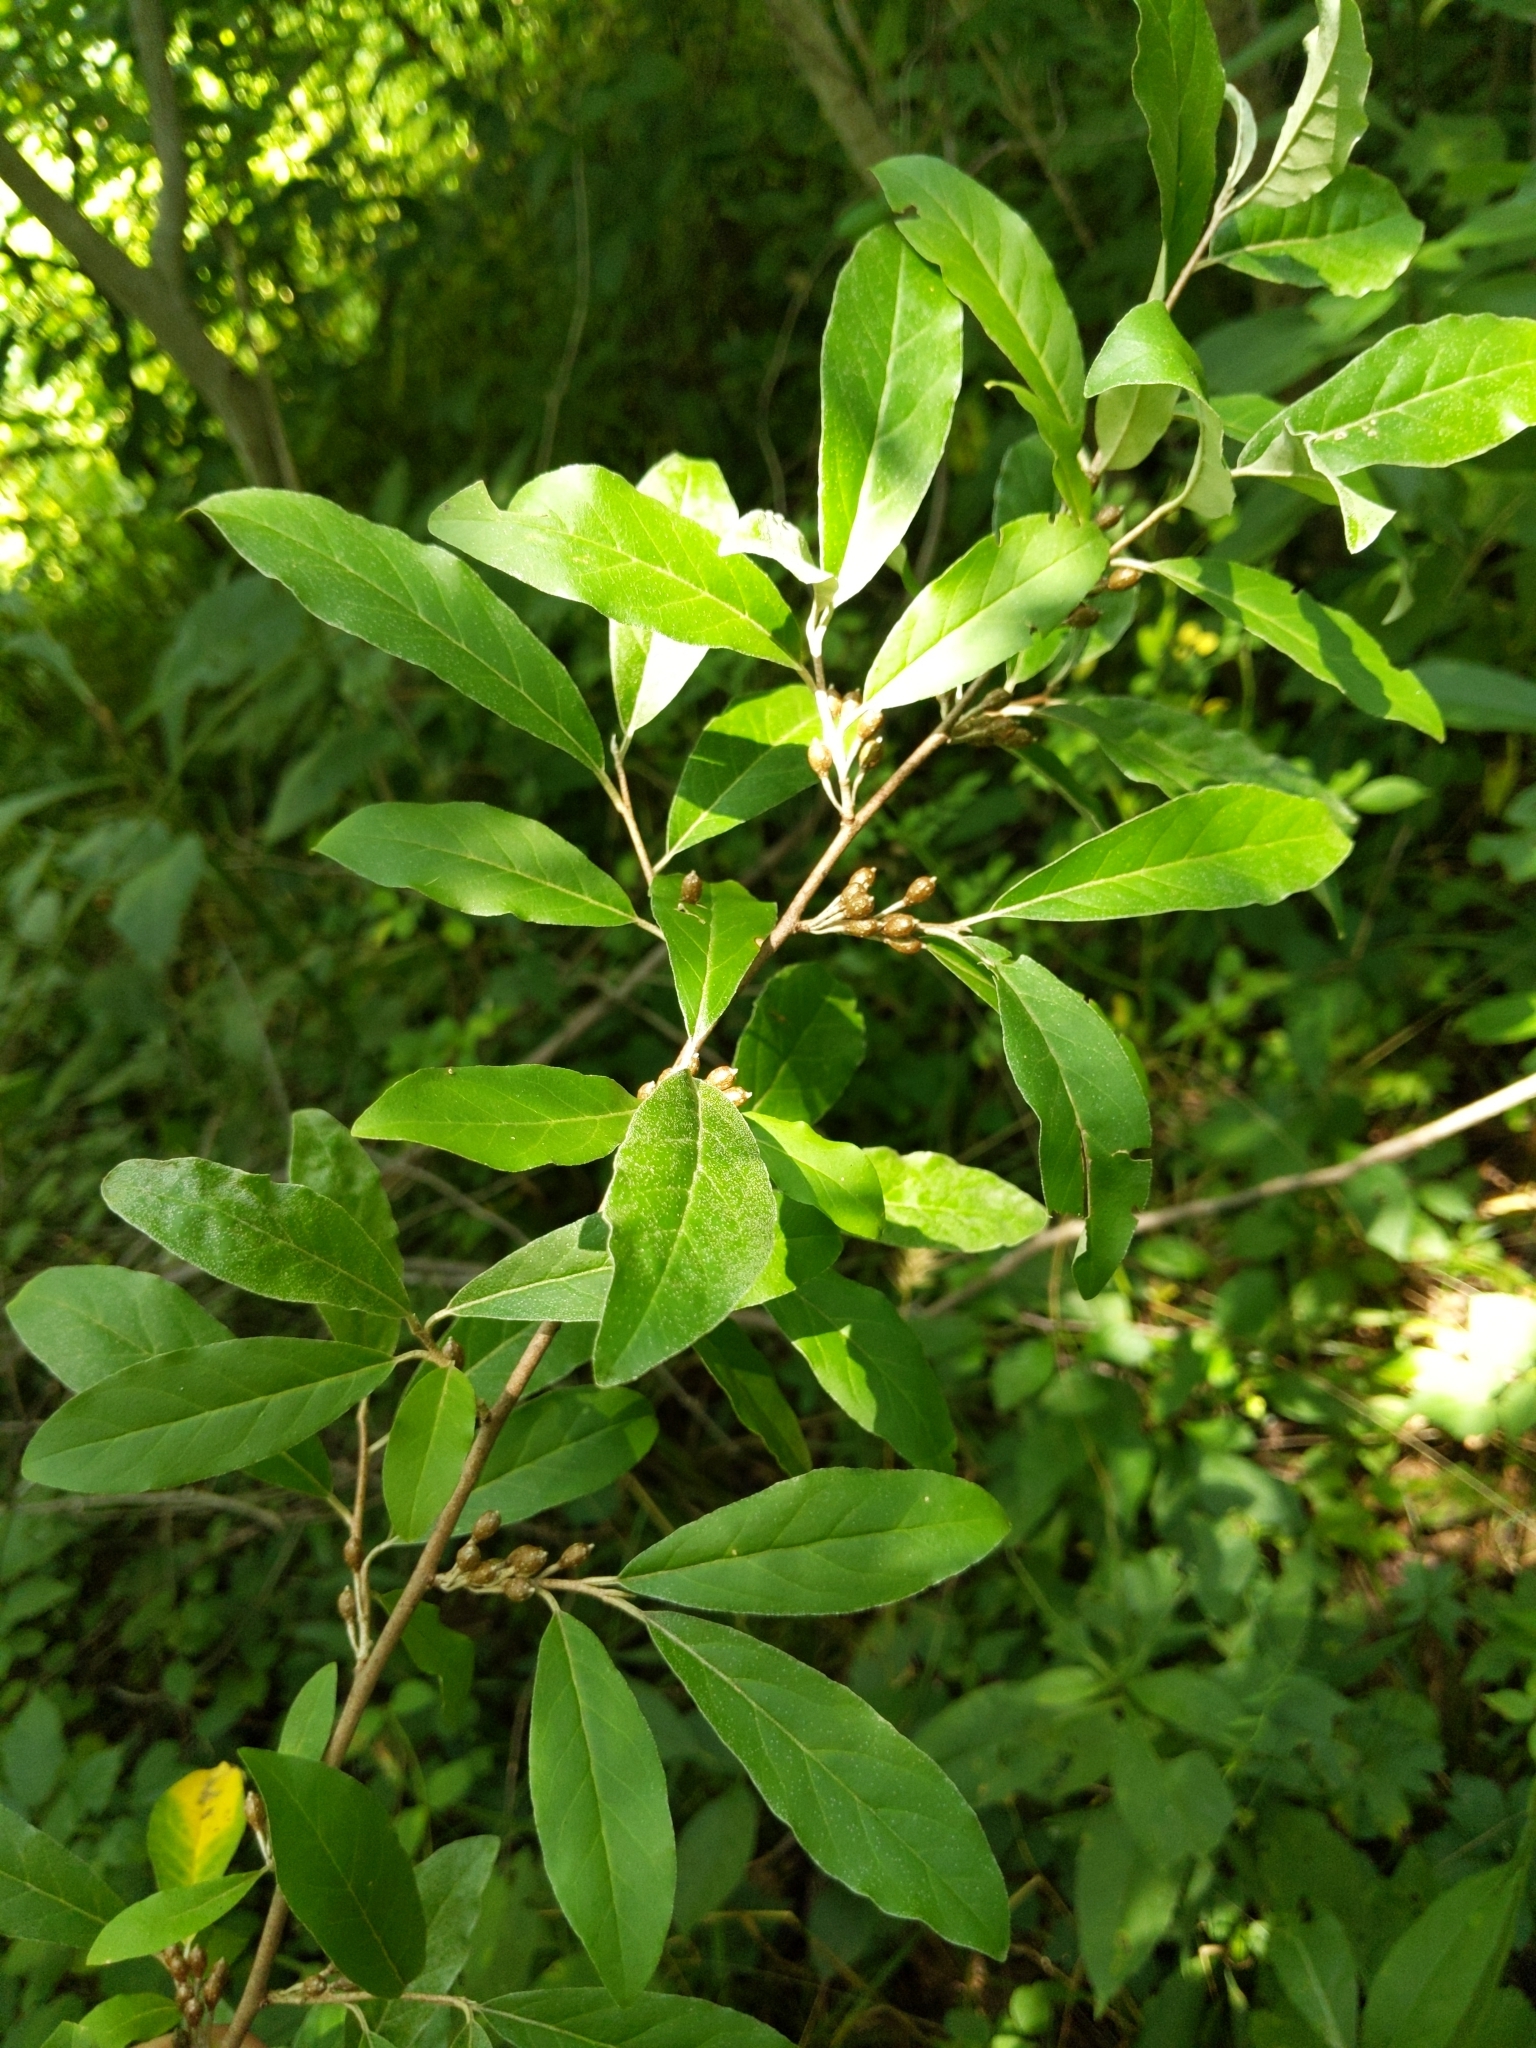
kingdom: Plantae
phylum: Tracheophyta
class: Magnoliopsida
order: Rosales
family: Elaeagnaceae
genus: Elaeagnus
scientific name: Elaeagnus umbellata
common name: Autumn olive
